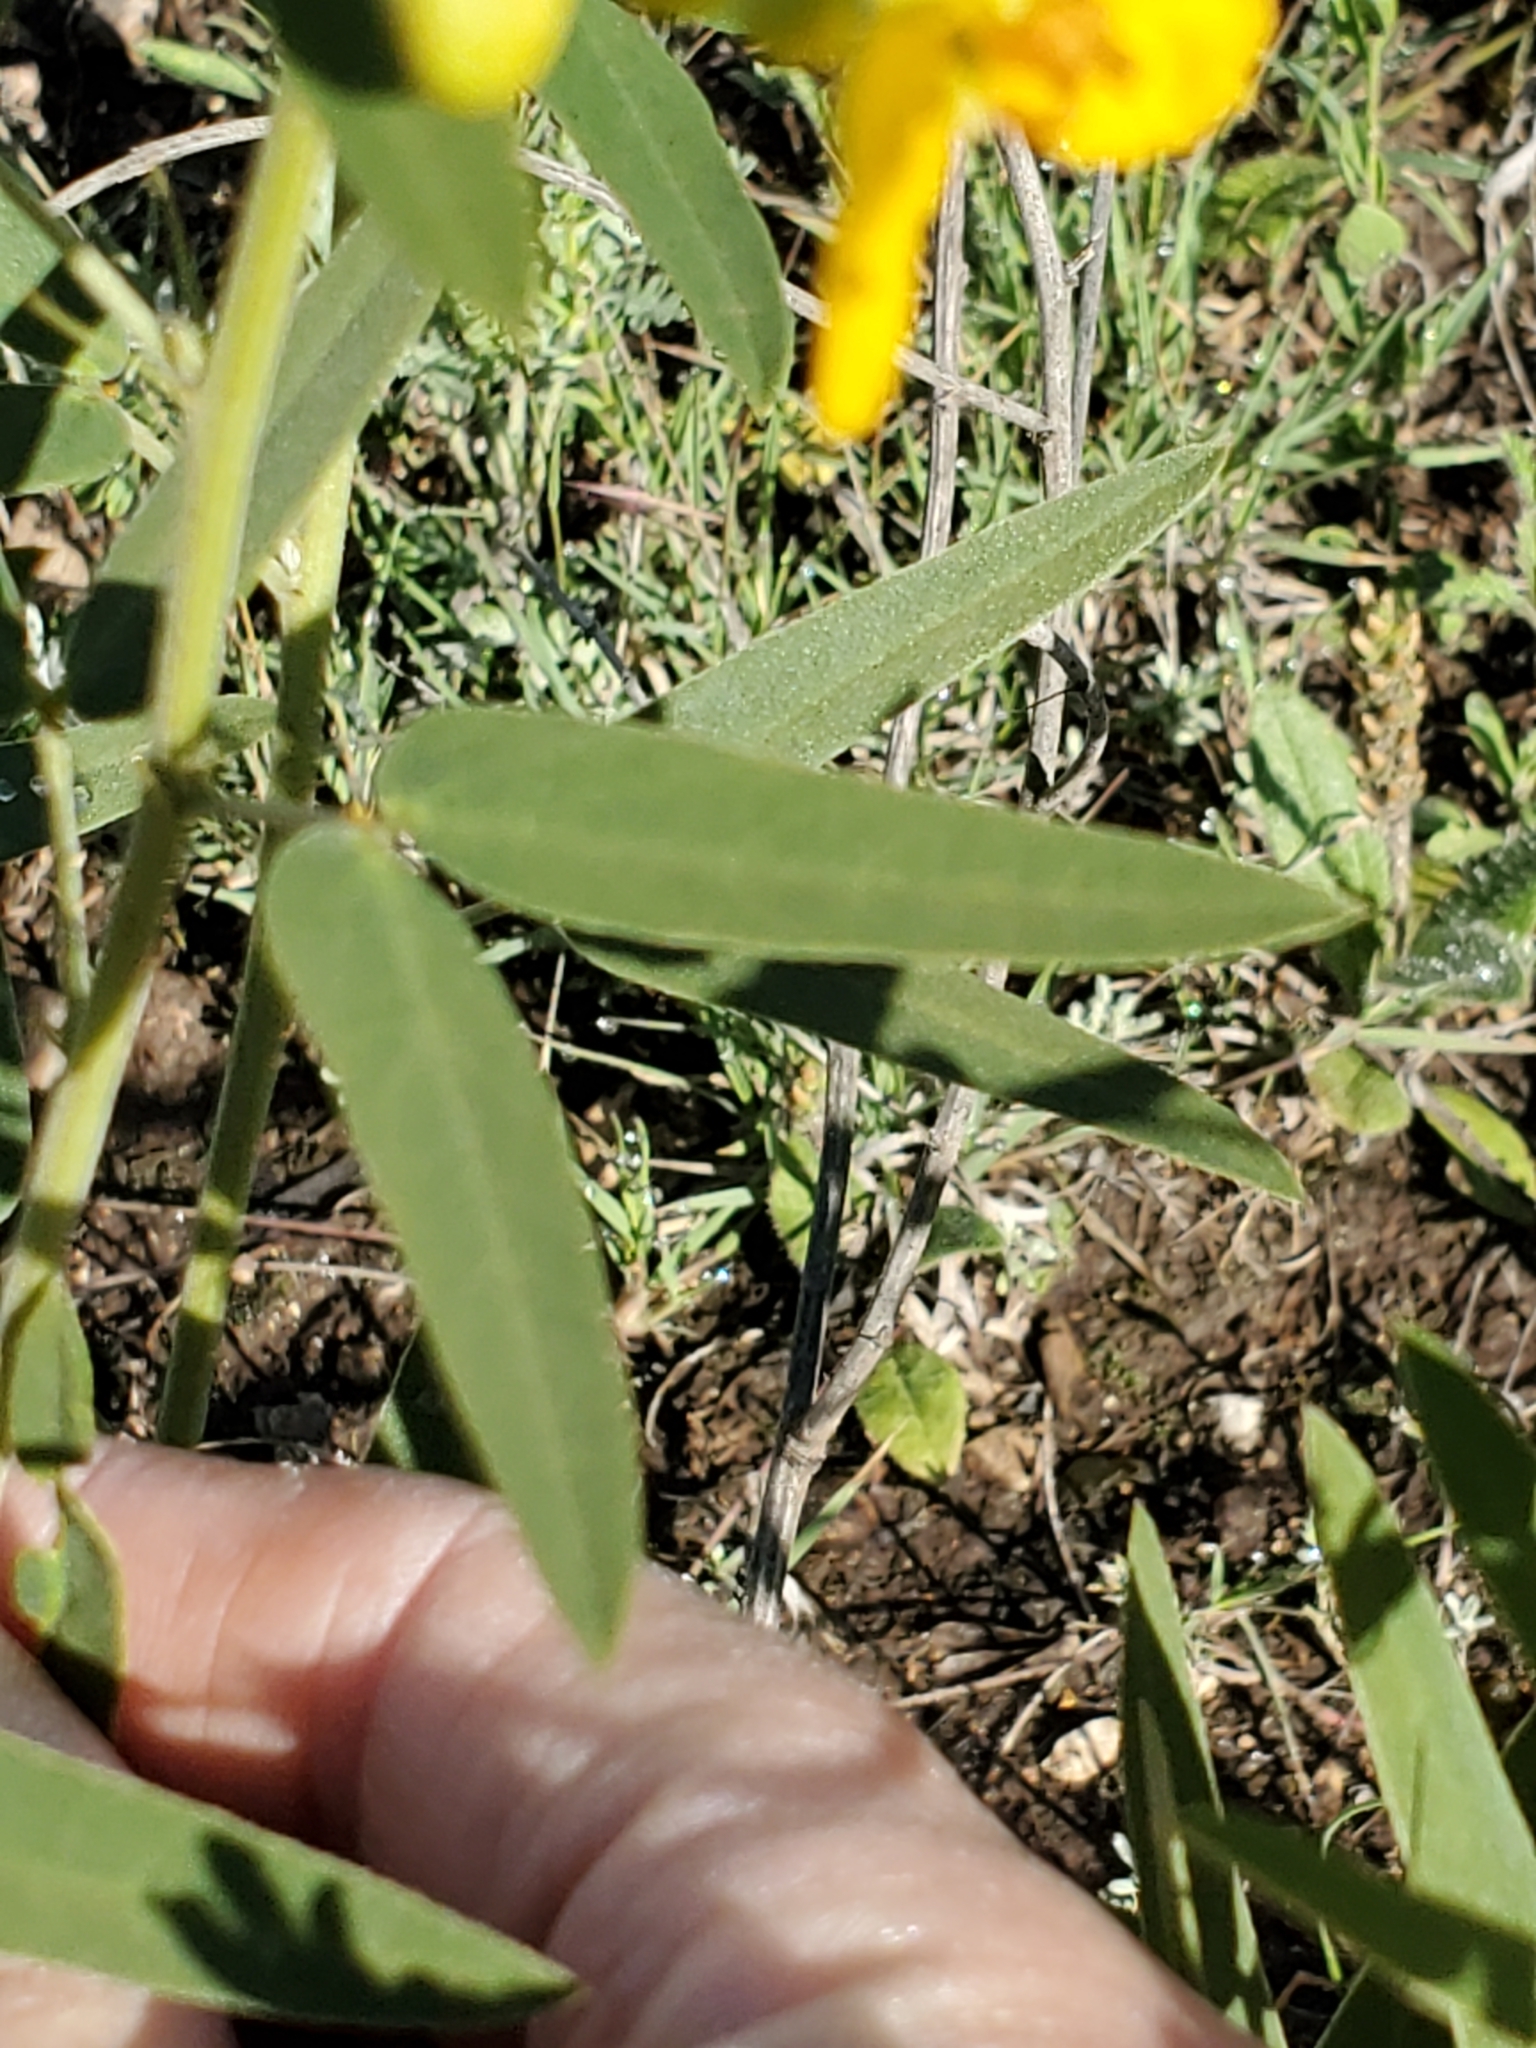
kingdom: Plantae
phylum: Tracheophyta
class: Magnoliopsida
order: Fabales
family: Fabaceae
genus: Senna
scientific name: Senna roemeriana
